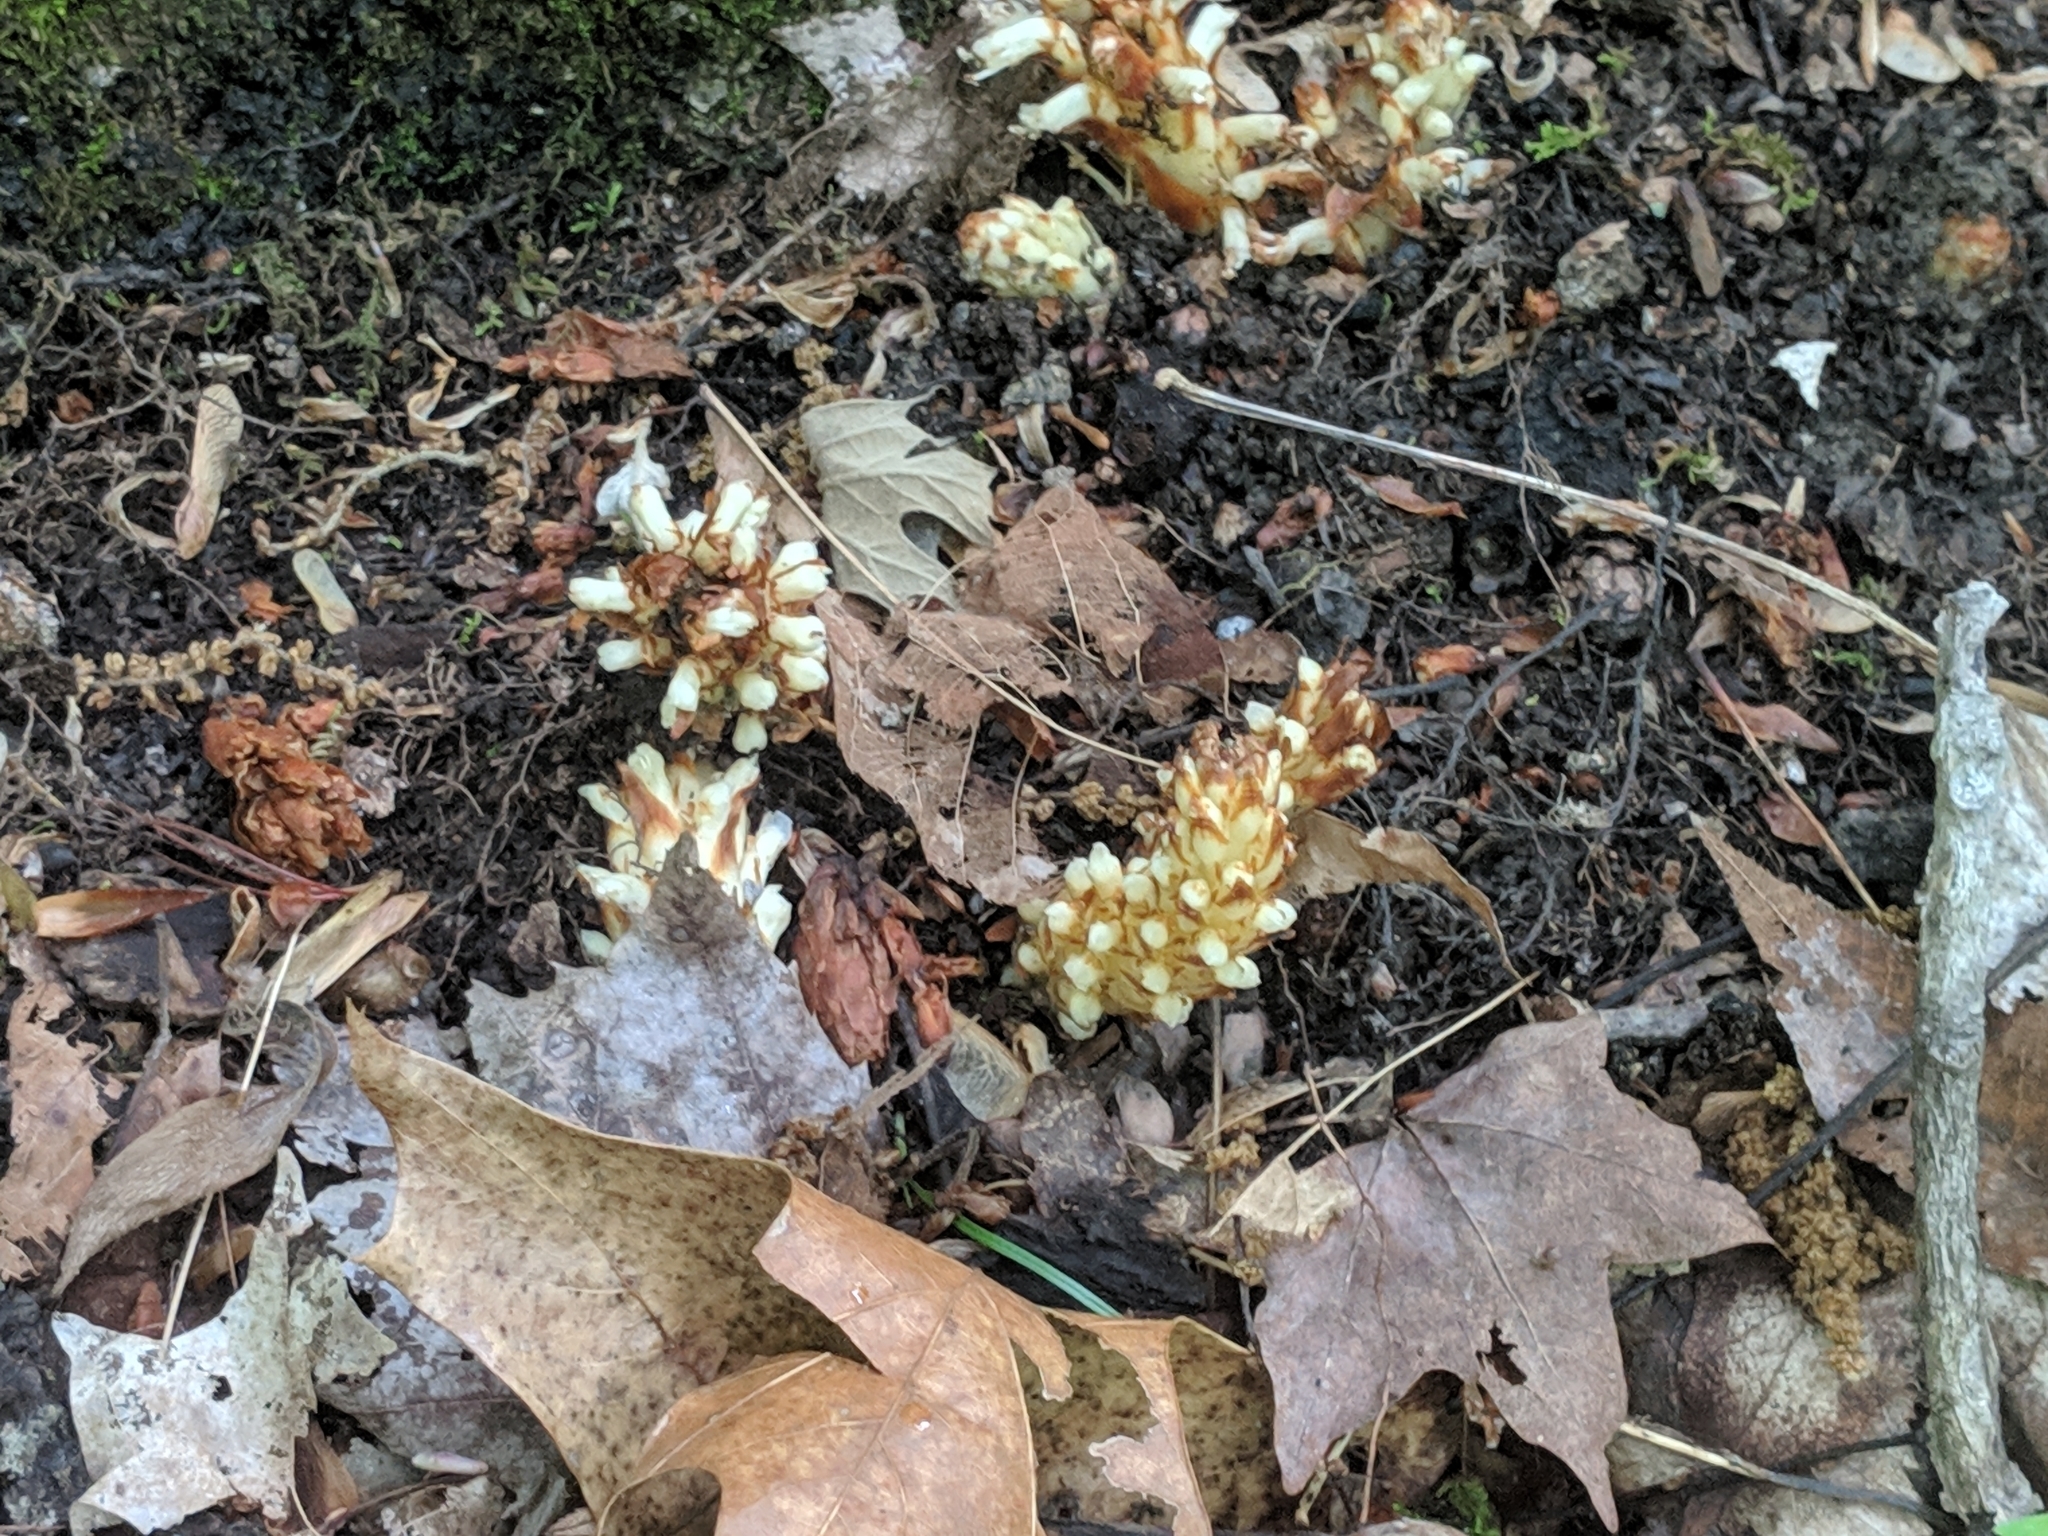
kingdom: Plantae
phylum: Tracheophyta
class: Magnoliopsida
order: Lamiales
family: Orobanchaceae
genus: Conopholis
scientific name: Conopholis americana
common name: American cancer-root
